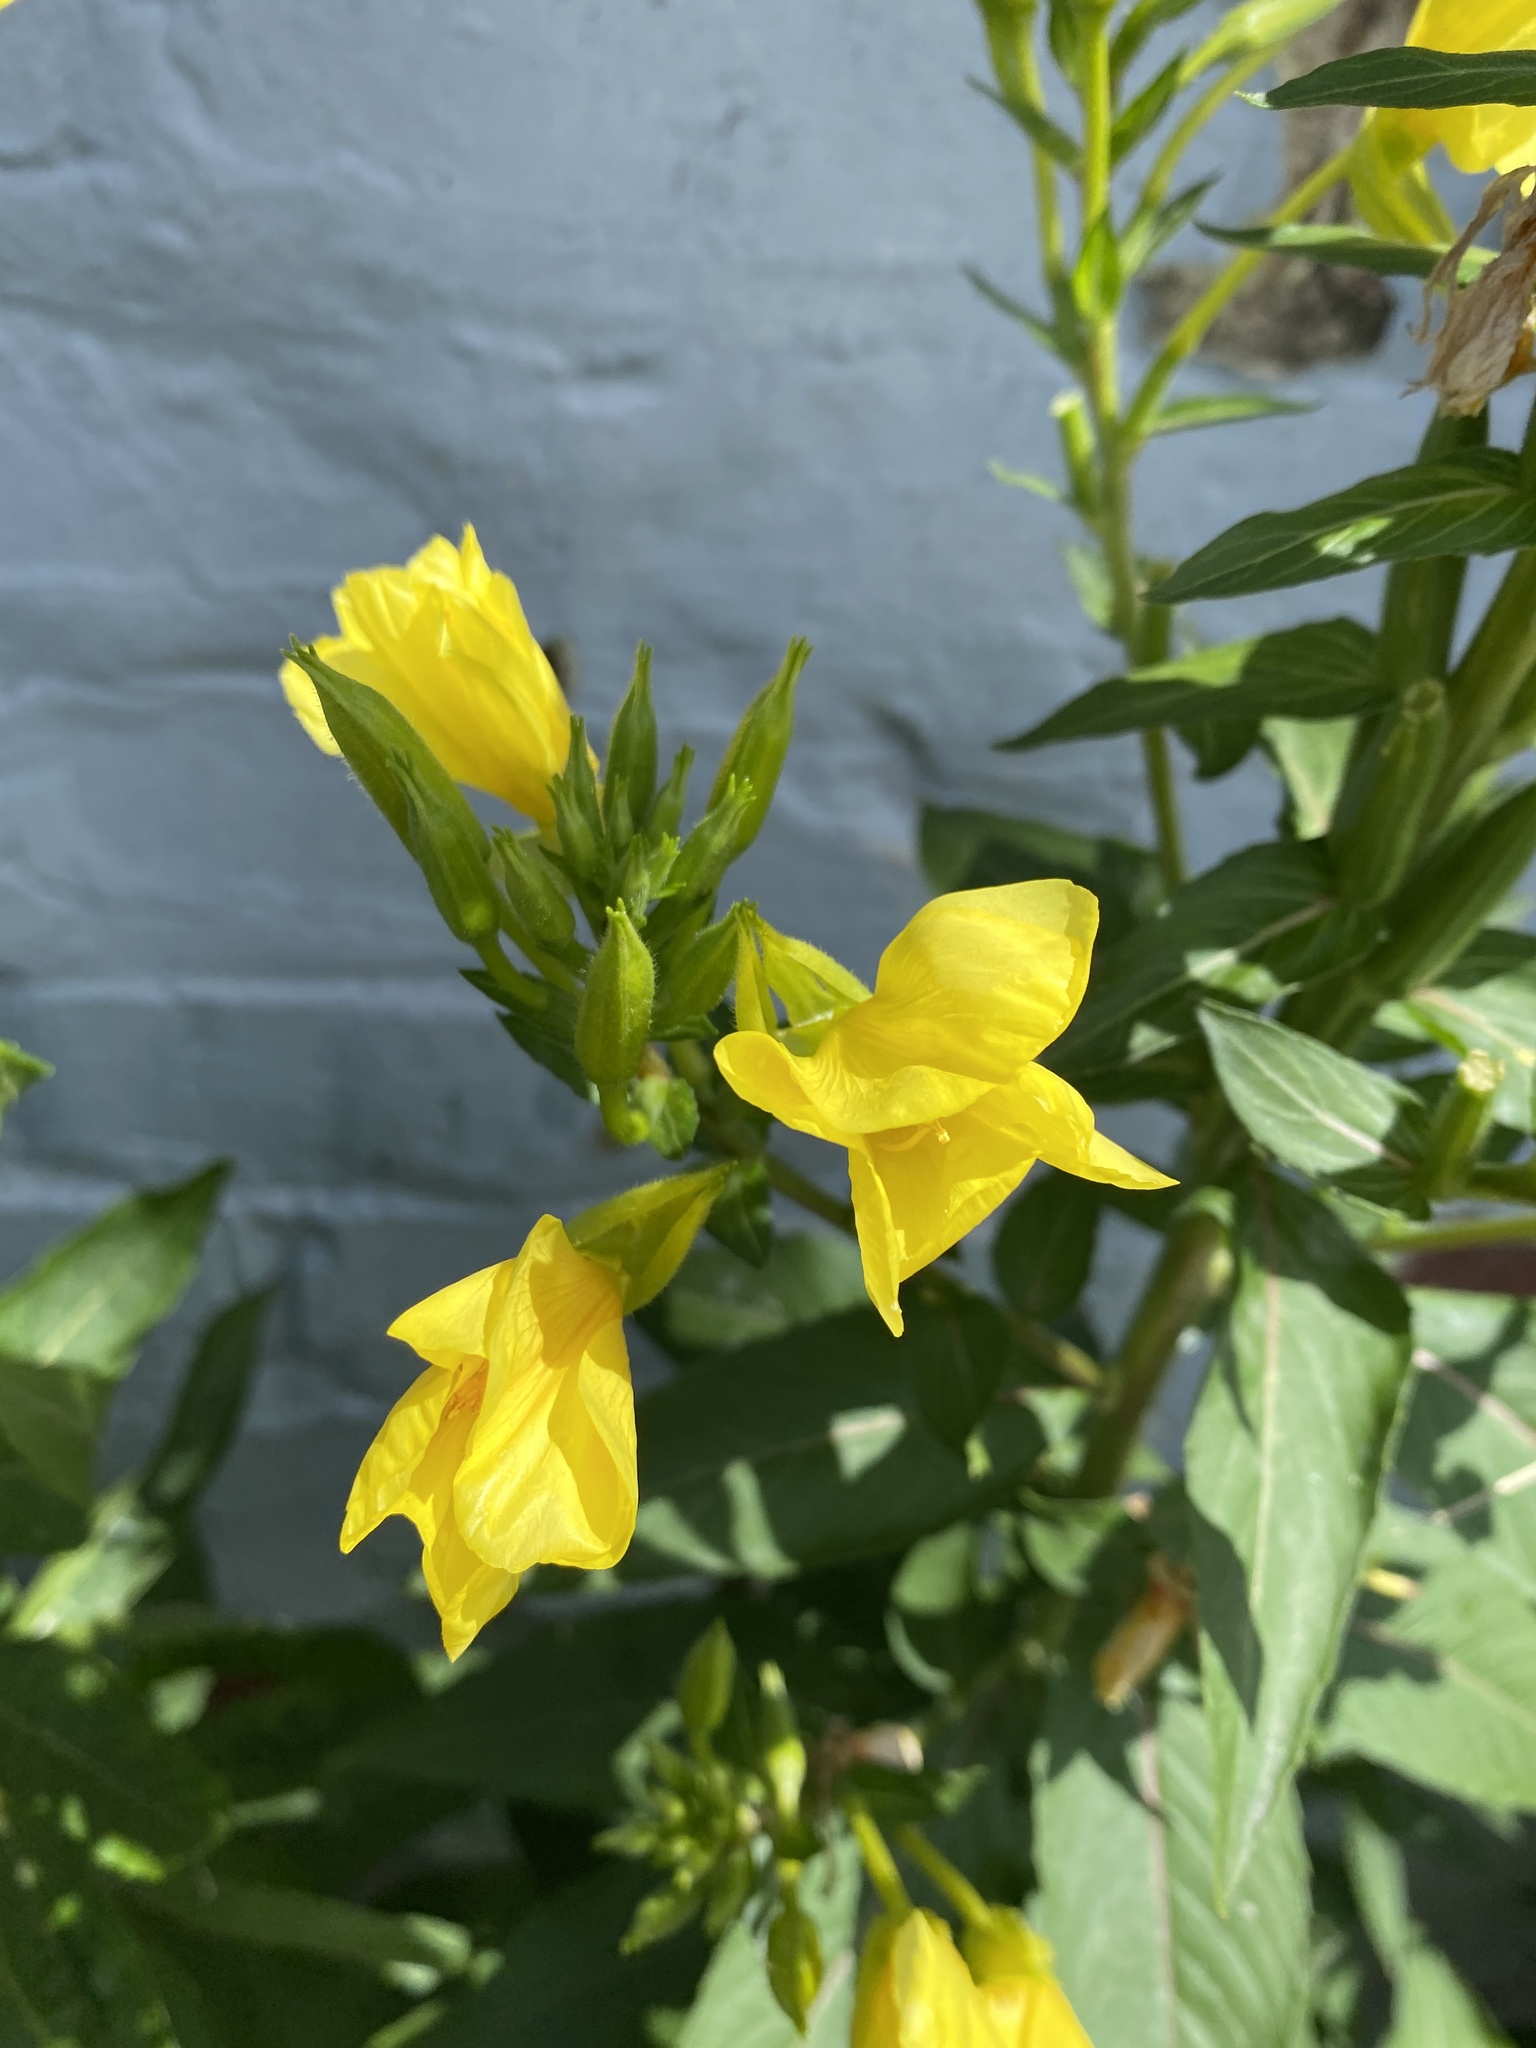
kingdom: Plantae
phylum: Tracheophyta
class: Magnoliopsida
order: Myrtales
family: Onagraceae
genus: Oenothera
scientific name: Oenothera biennis
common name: Common evening-primrose
